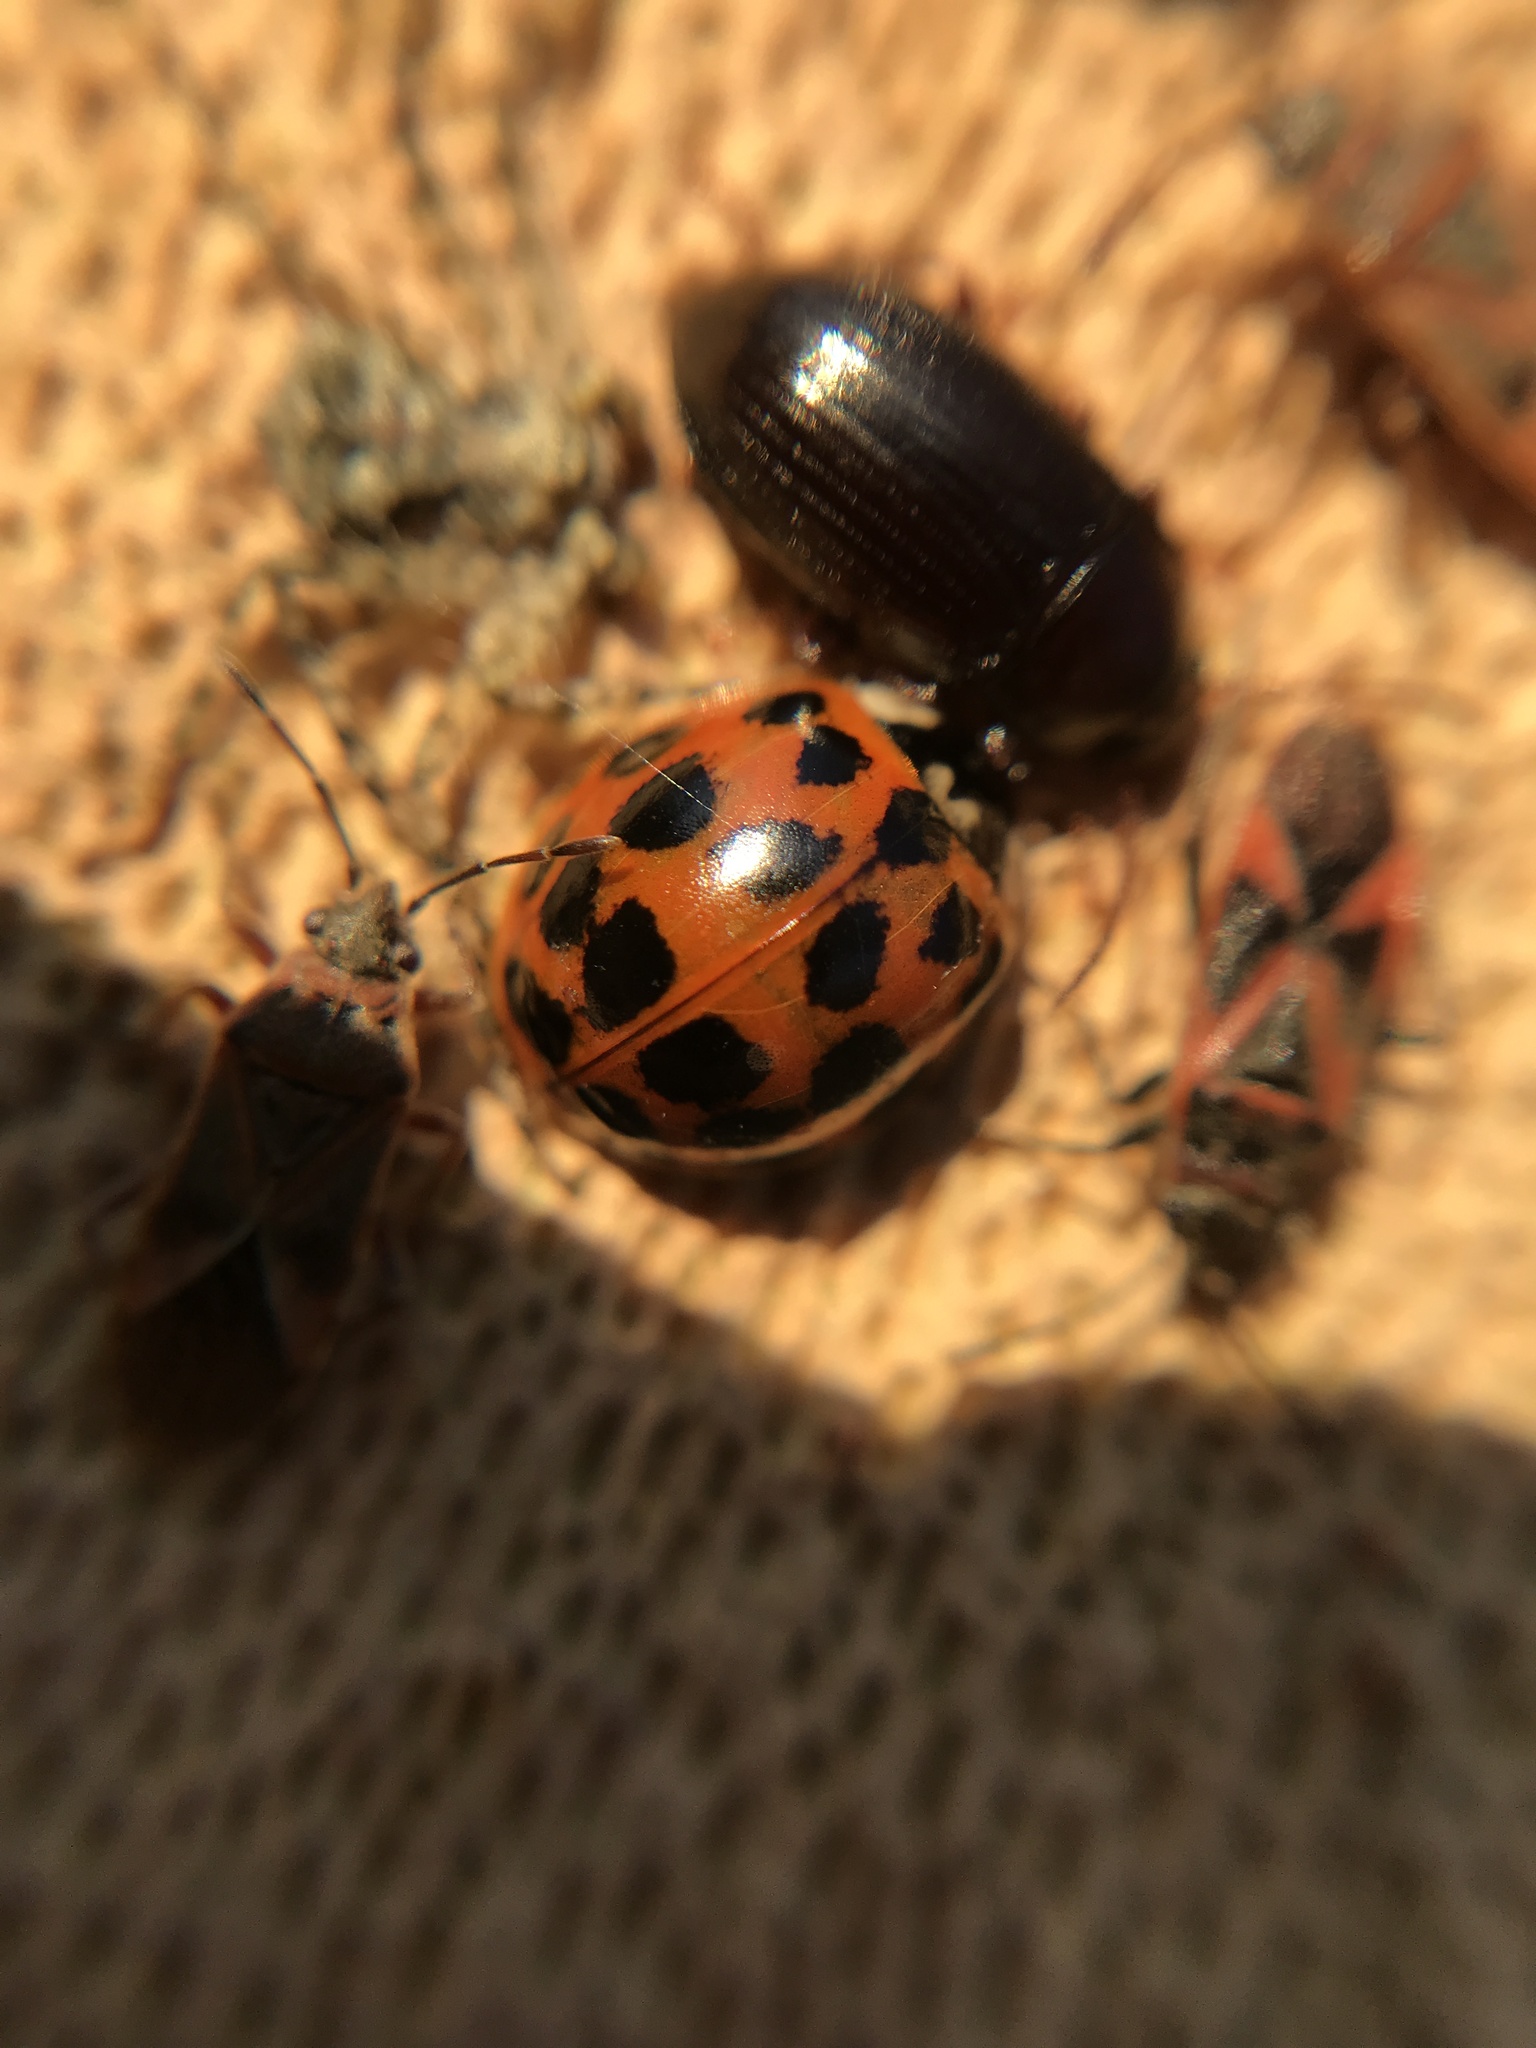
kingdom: Animalia
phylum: Arthropoda
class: Insecta
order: Coleoptera
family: Coccinellidae
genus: Harmonia
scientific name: Harmonia axyridis
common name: Harlequin ladybird
